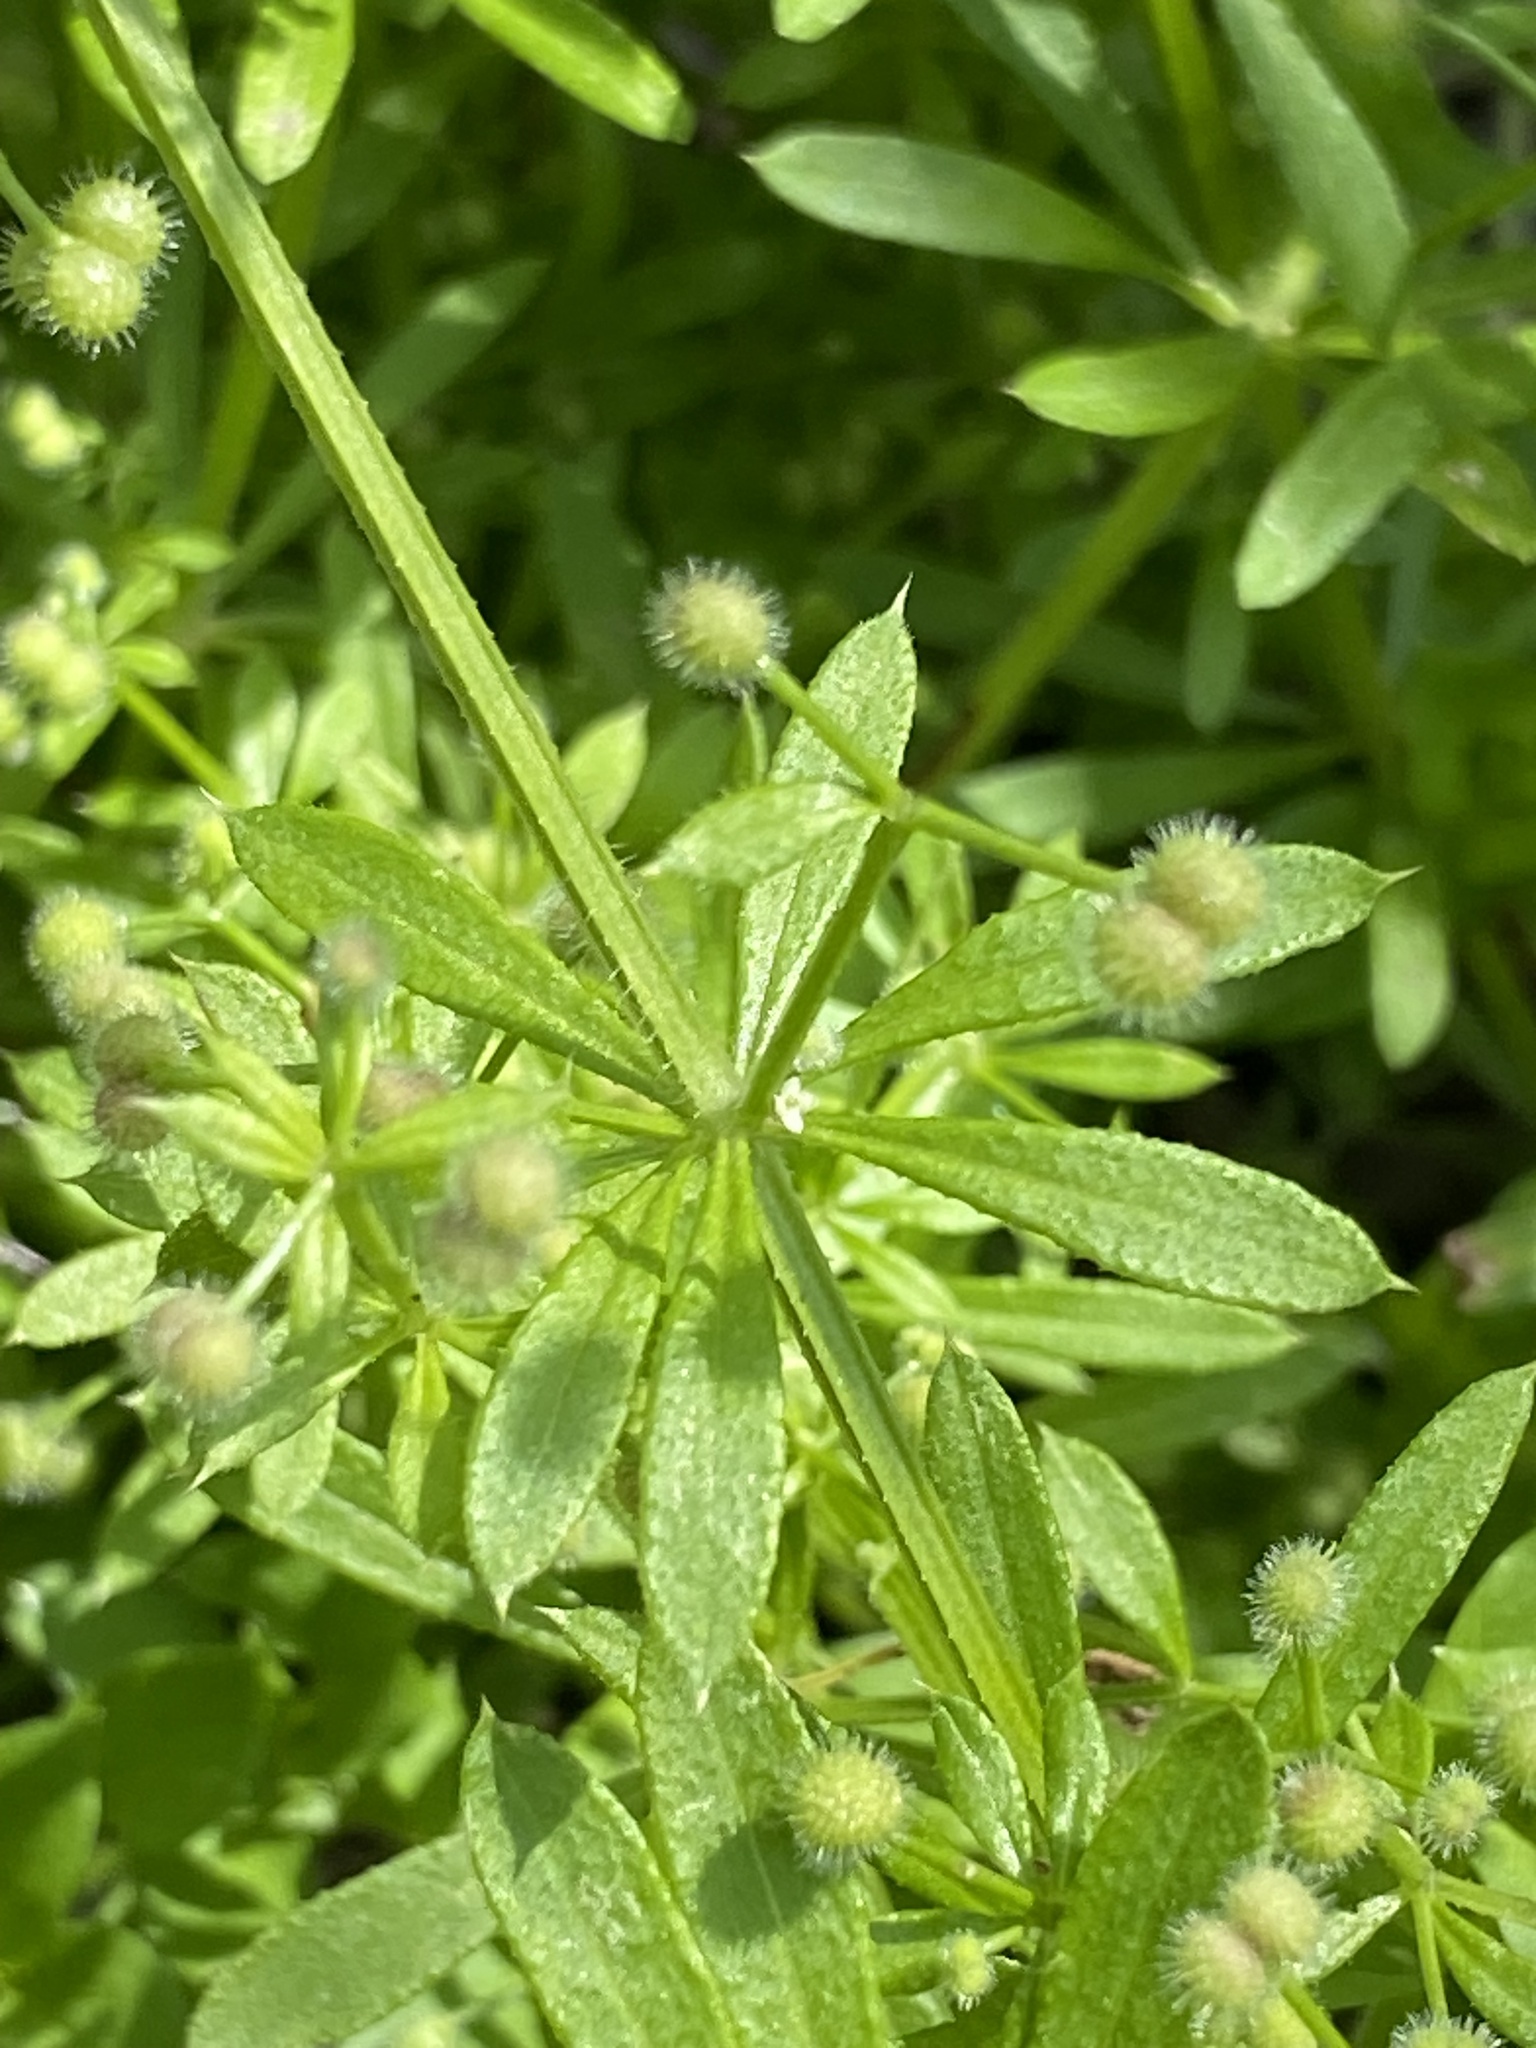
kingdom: Plantae
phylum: Tracheophyta
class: Magnoliopsida
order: Gentianales
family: Rubiaceae
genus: Galium
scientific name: Galium aparine
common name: Cleavers
